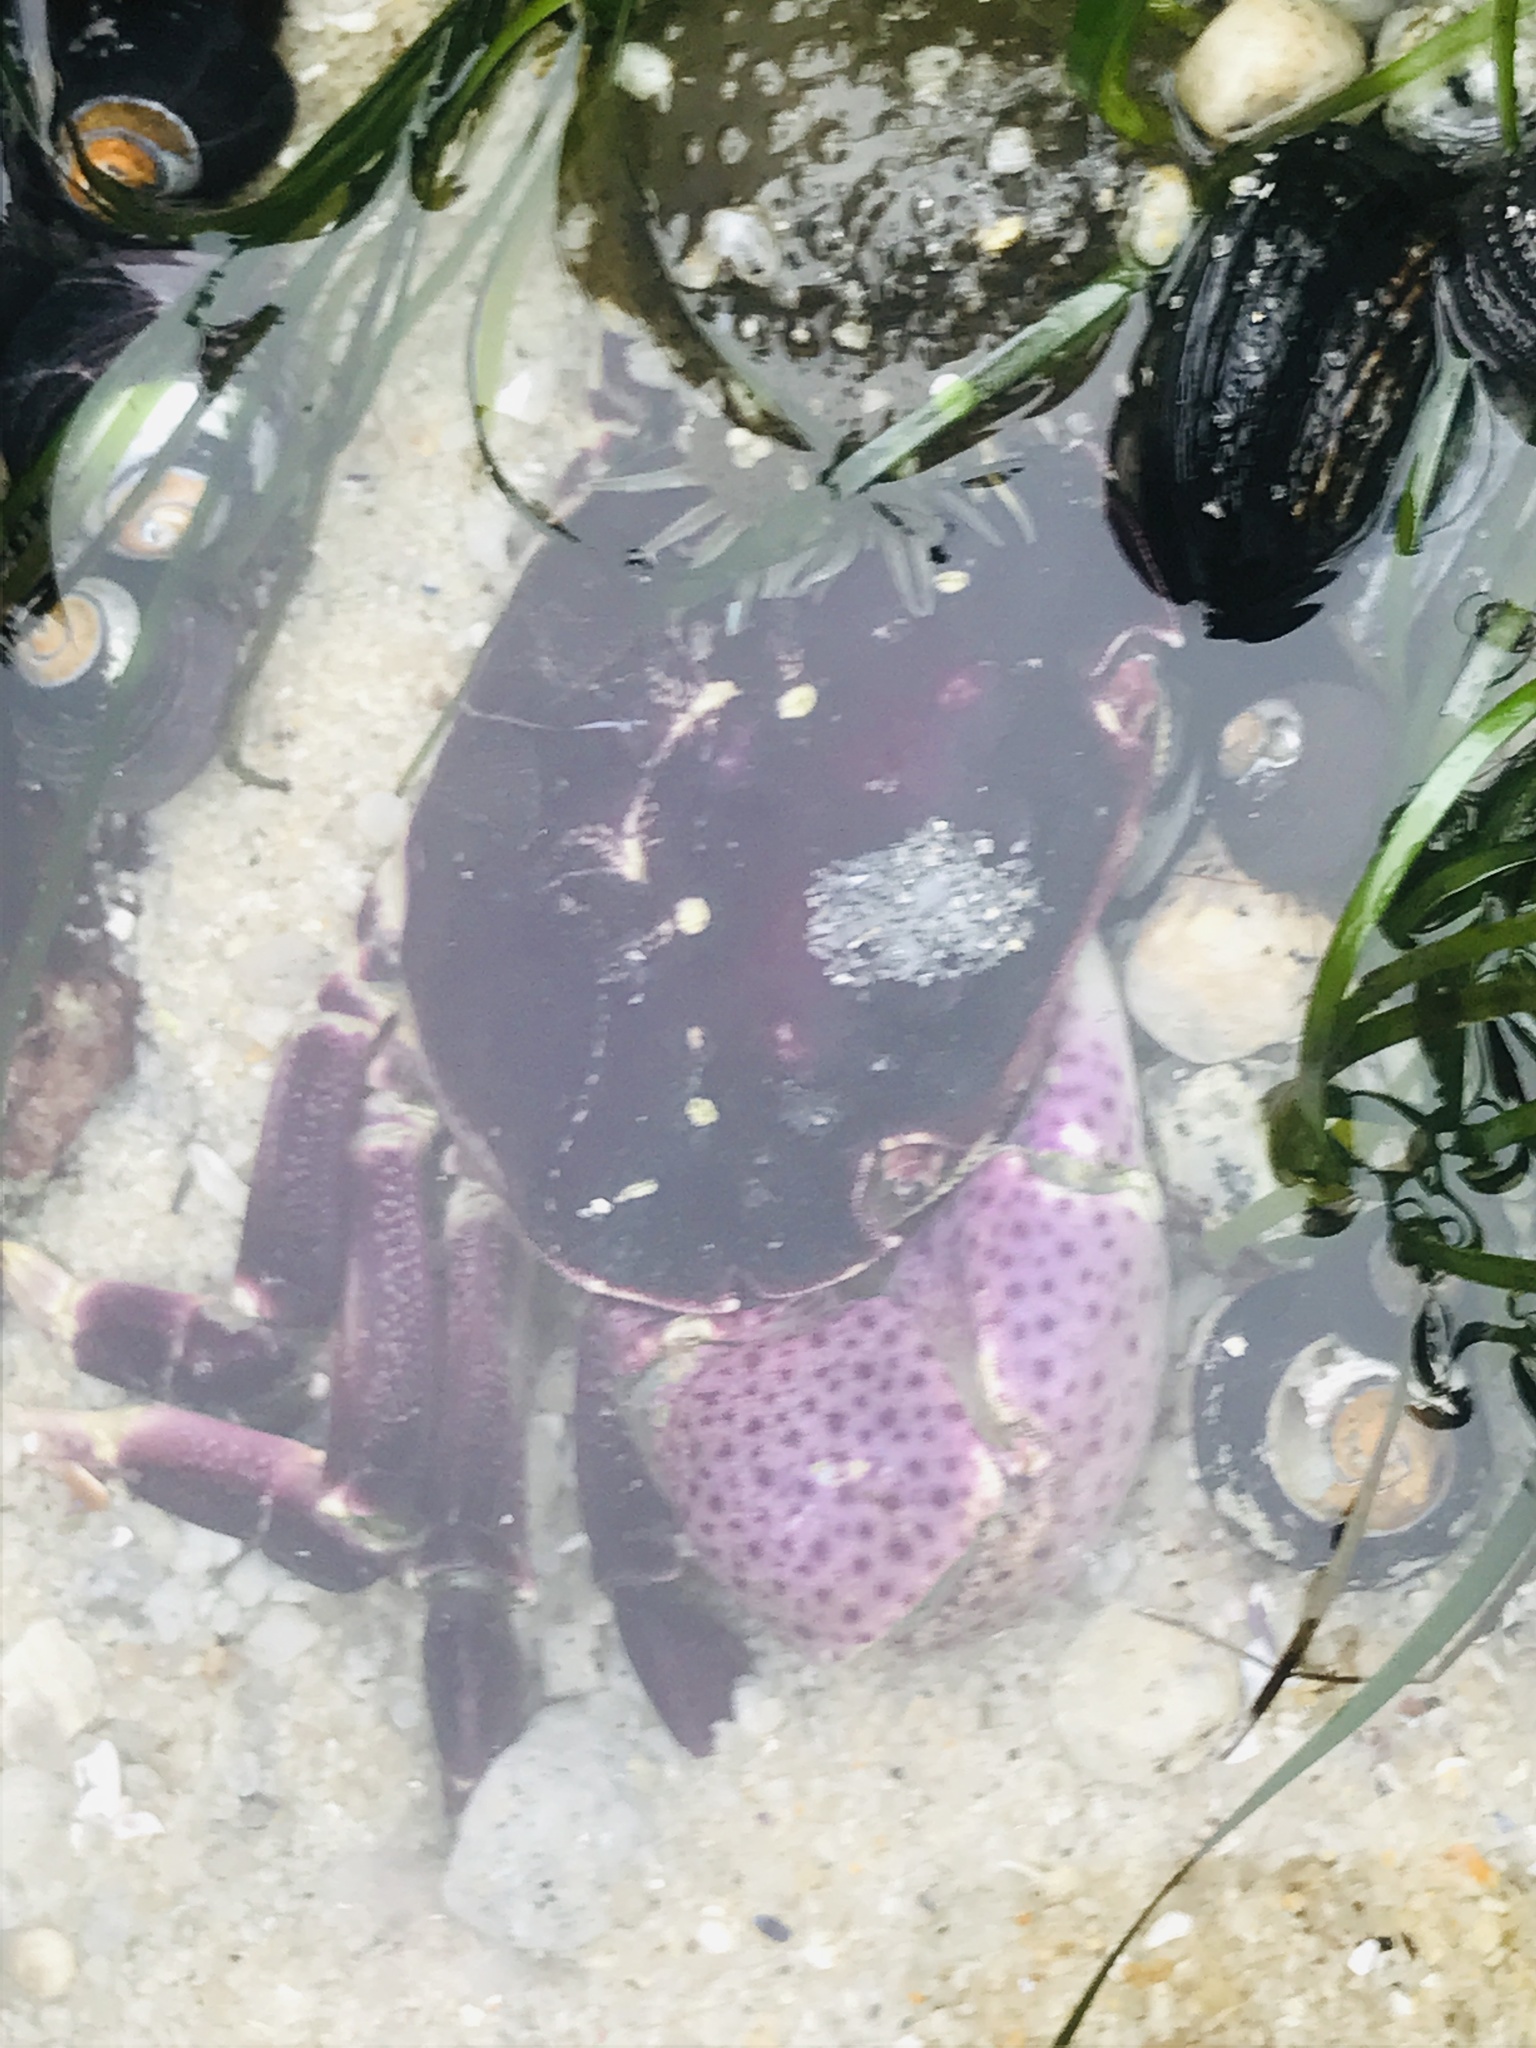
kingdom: Animalia
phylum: Arthropoda
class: Malacostraca
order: Decapoda
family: Varunidae
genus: Hemigrapsus
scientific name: Hemigrapsus nudus
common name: Purple shore crab
